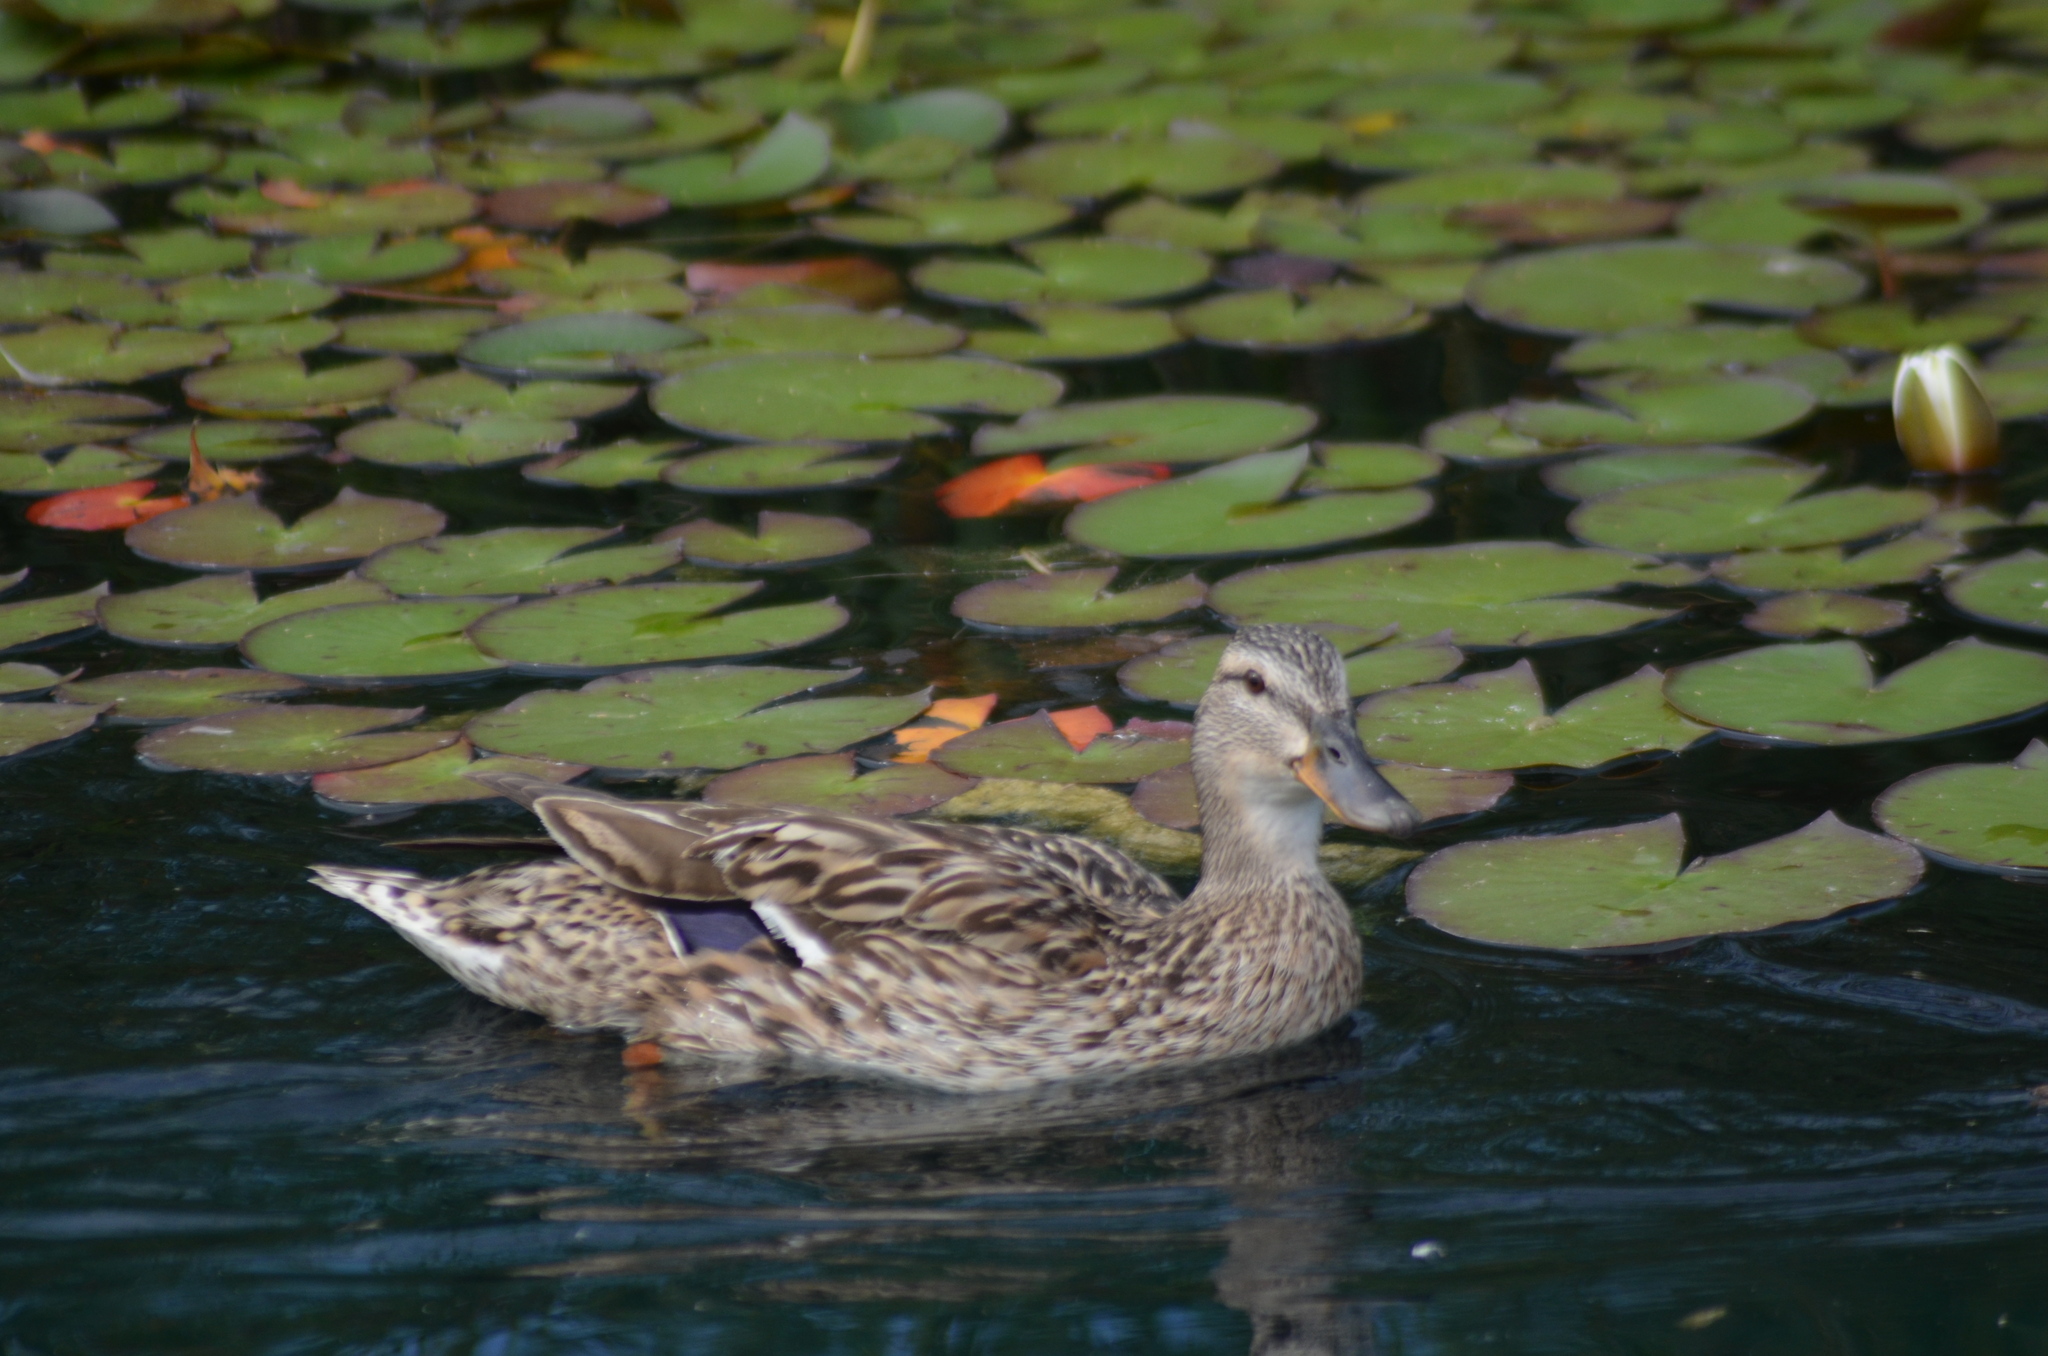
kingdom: Animalia
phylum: Chordata
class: Aves
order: Anseriformes
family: Anatidae
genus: Anas
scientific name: Anas platyrhynchos
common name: Mallard
